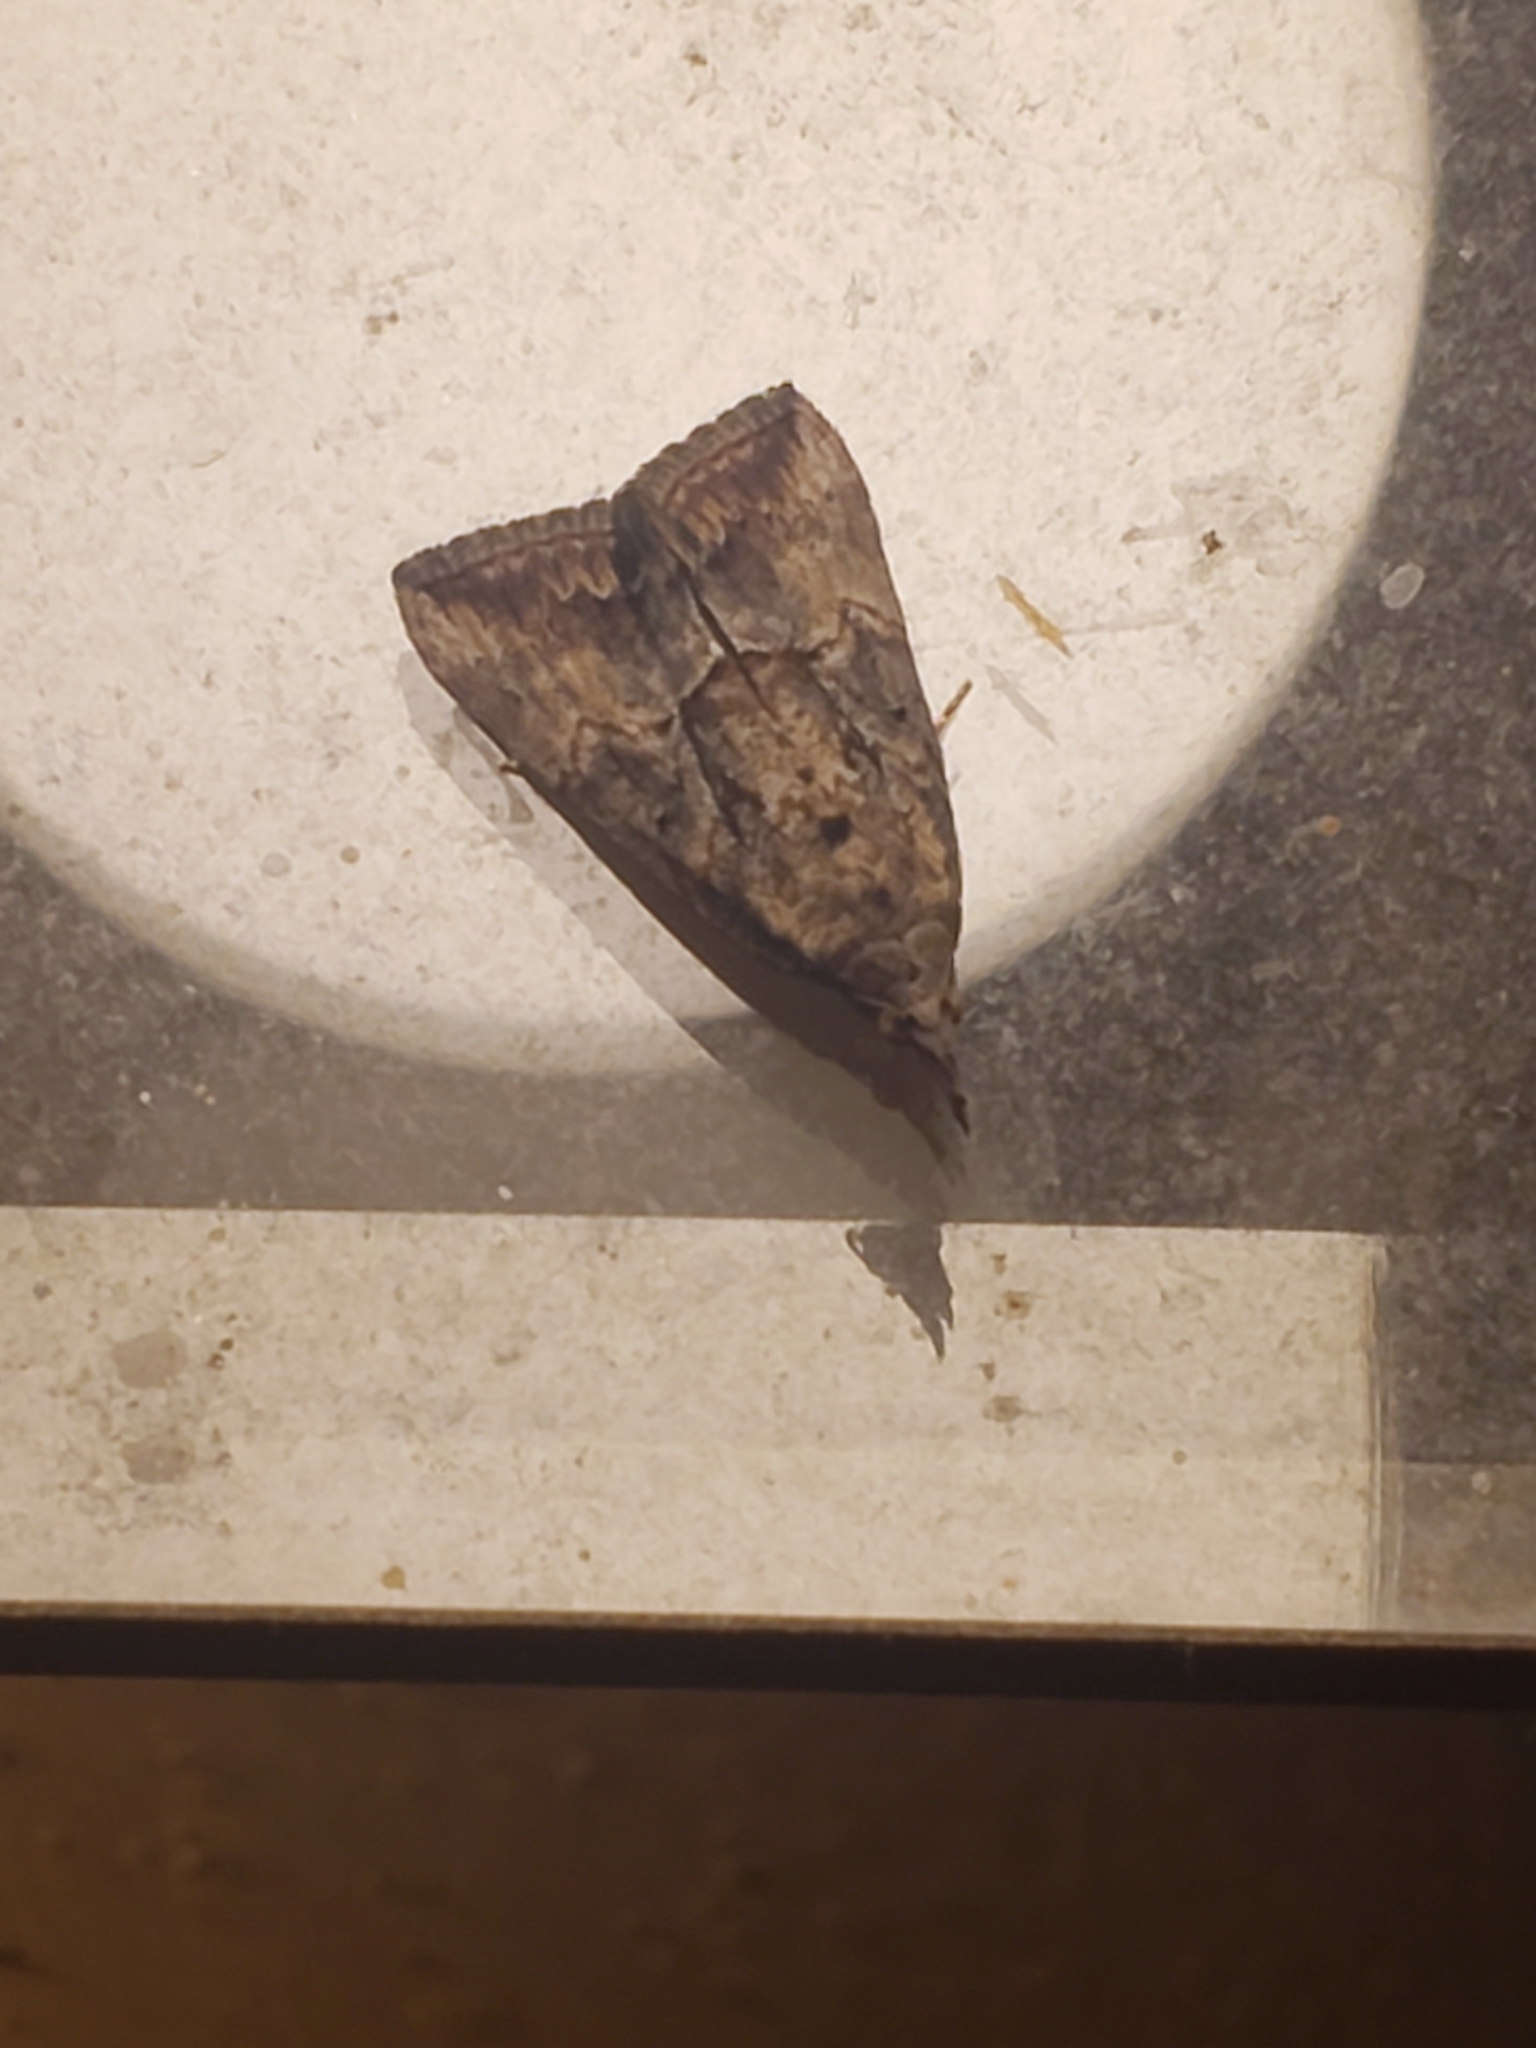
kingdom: Animalia
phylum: Arthropoda
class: Insecta
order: Lepidoptera
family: Erebidae
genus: Hypena
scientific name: Hypena scabra
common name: Green cloverworm
